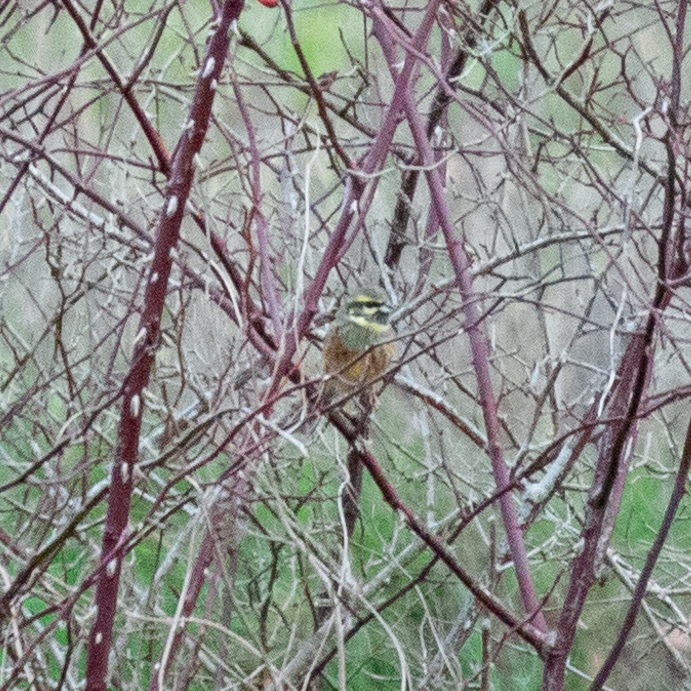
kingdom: Animalia
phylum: Chordata
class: Aves
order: Passeriformes
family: Emberizidae
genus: Emberiza
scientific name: Emberiza cirlus
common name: Cirl bunting
